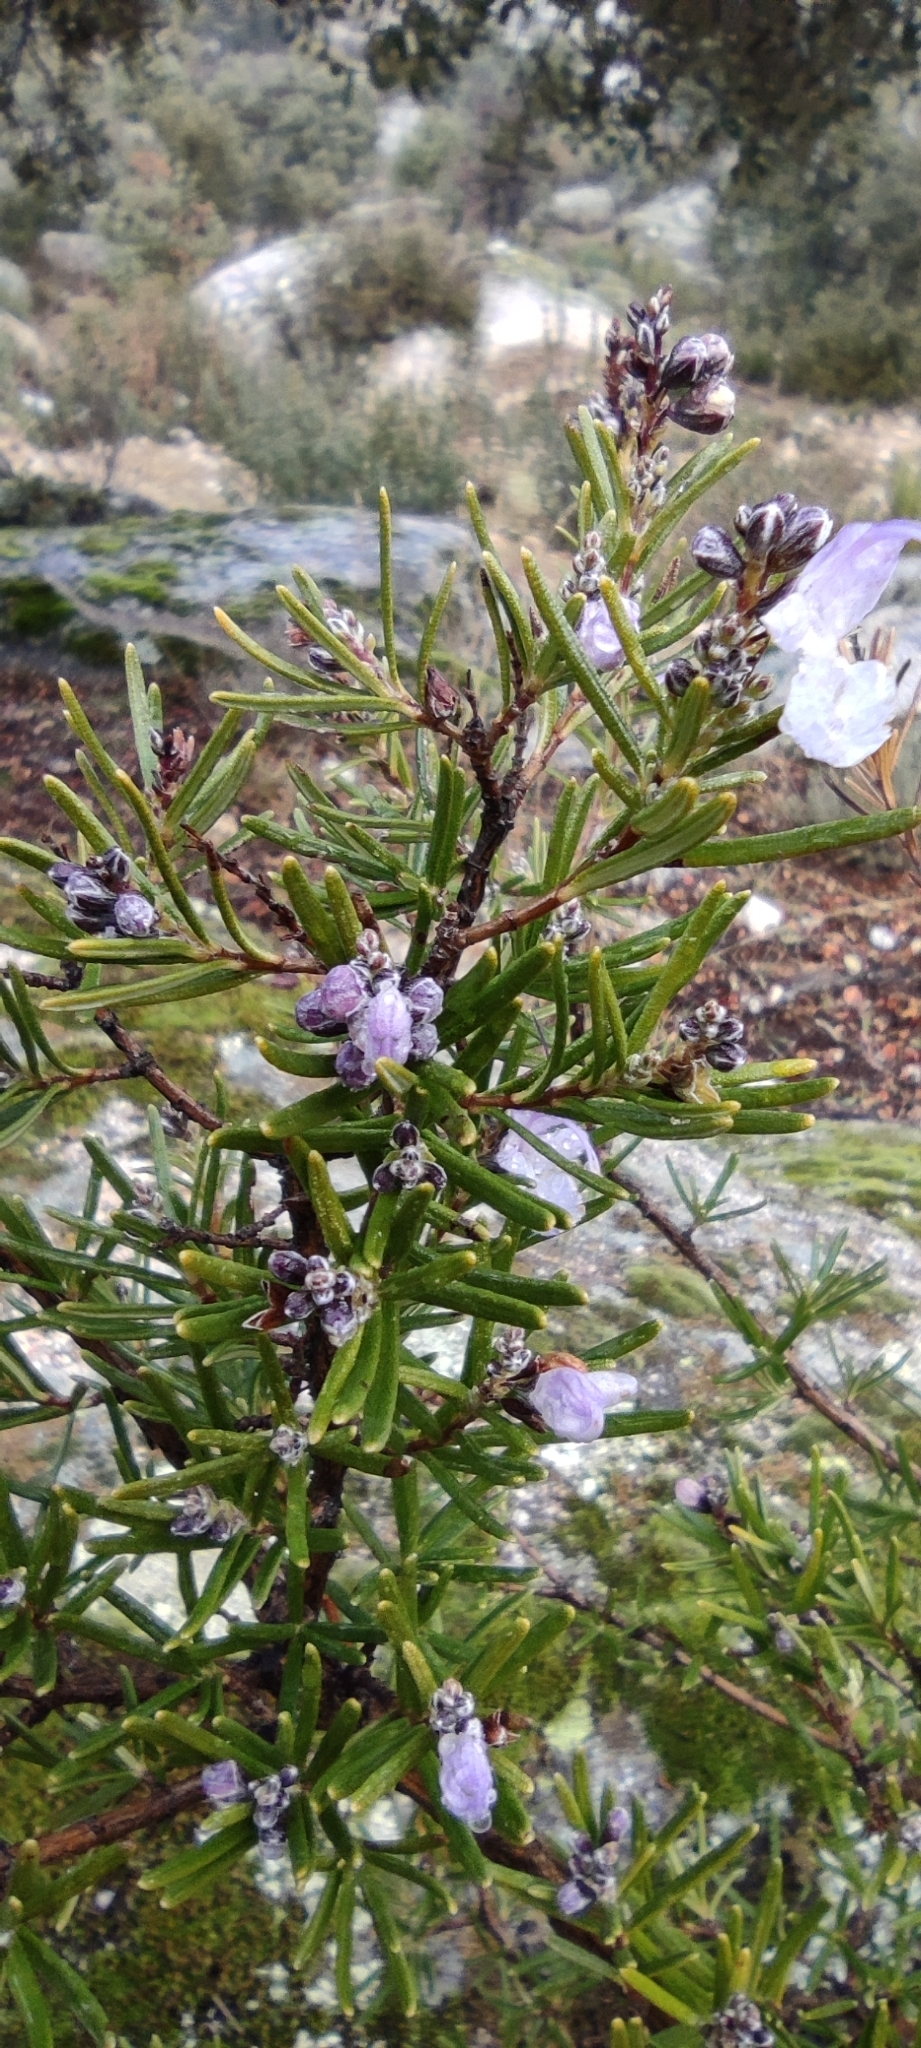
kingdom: Plantae
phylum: Tracheophyta
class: Magnoliopsida
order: Lamiales
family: Lamiaceae
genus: Salvia
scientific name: Salvia rosmarinus
